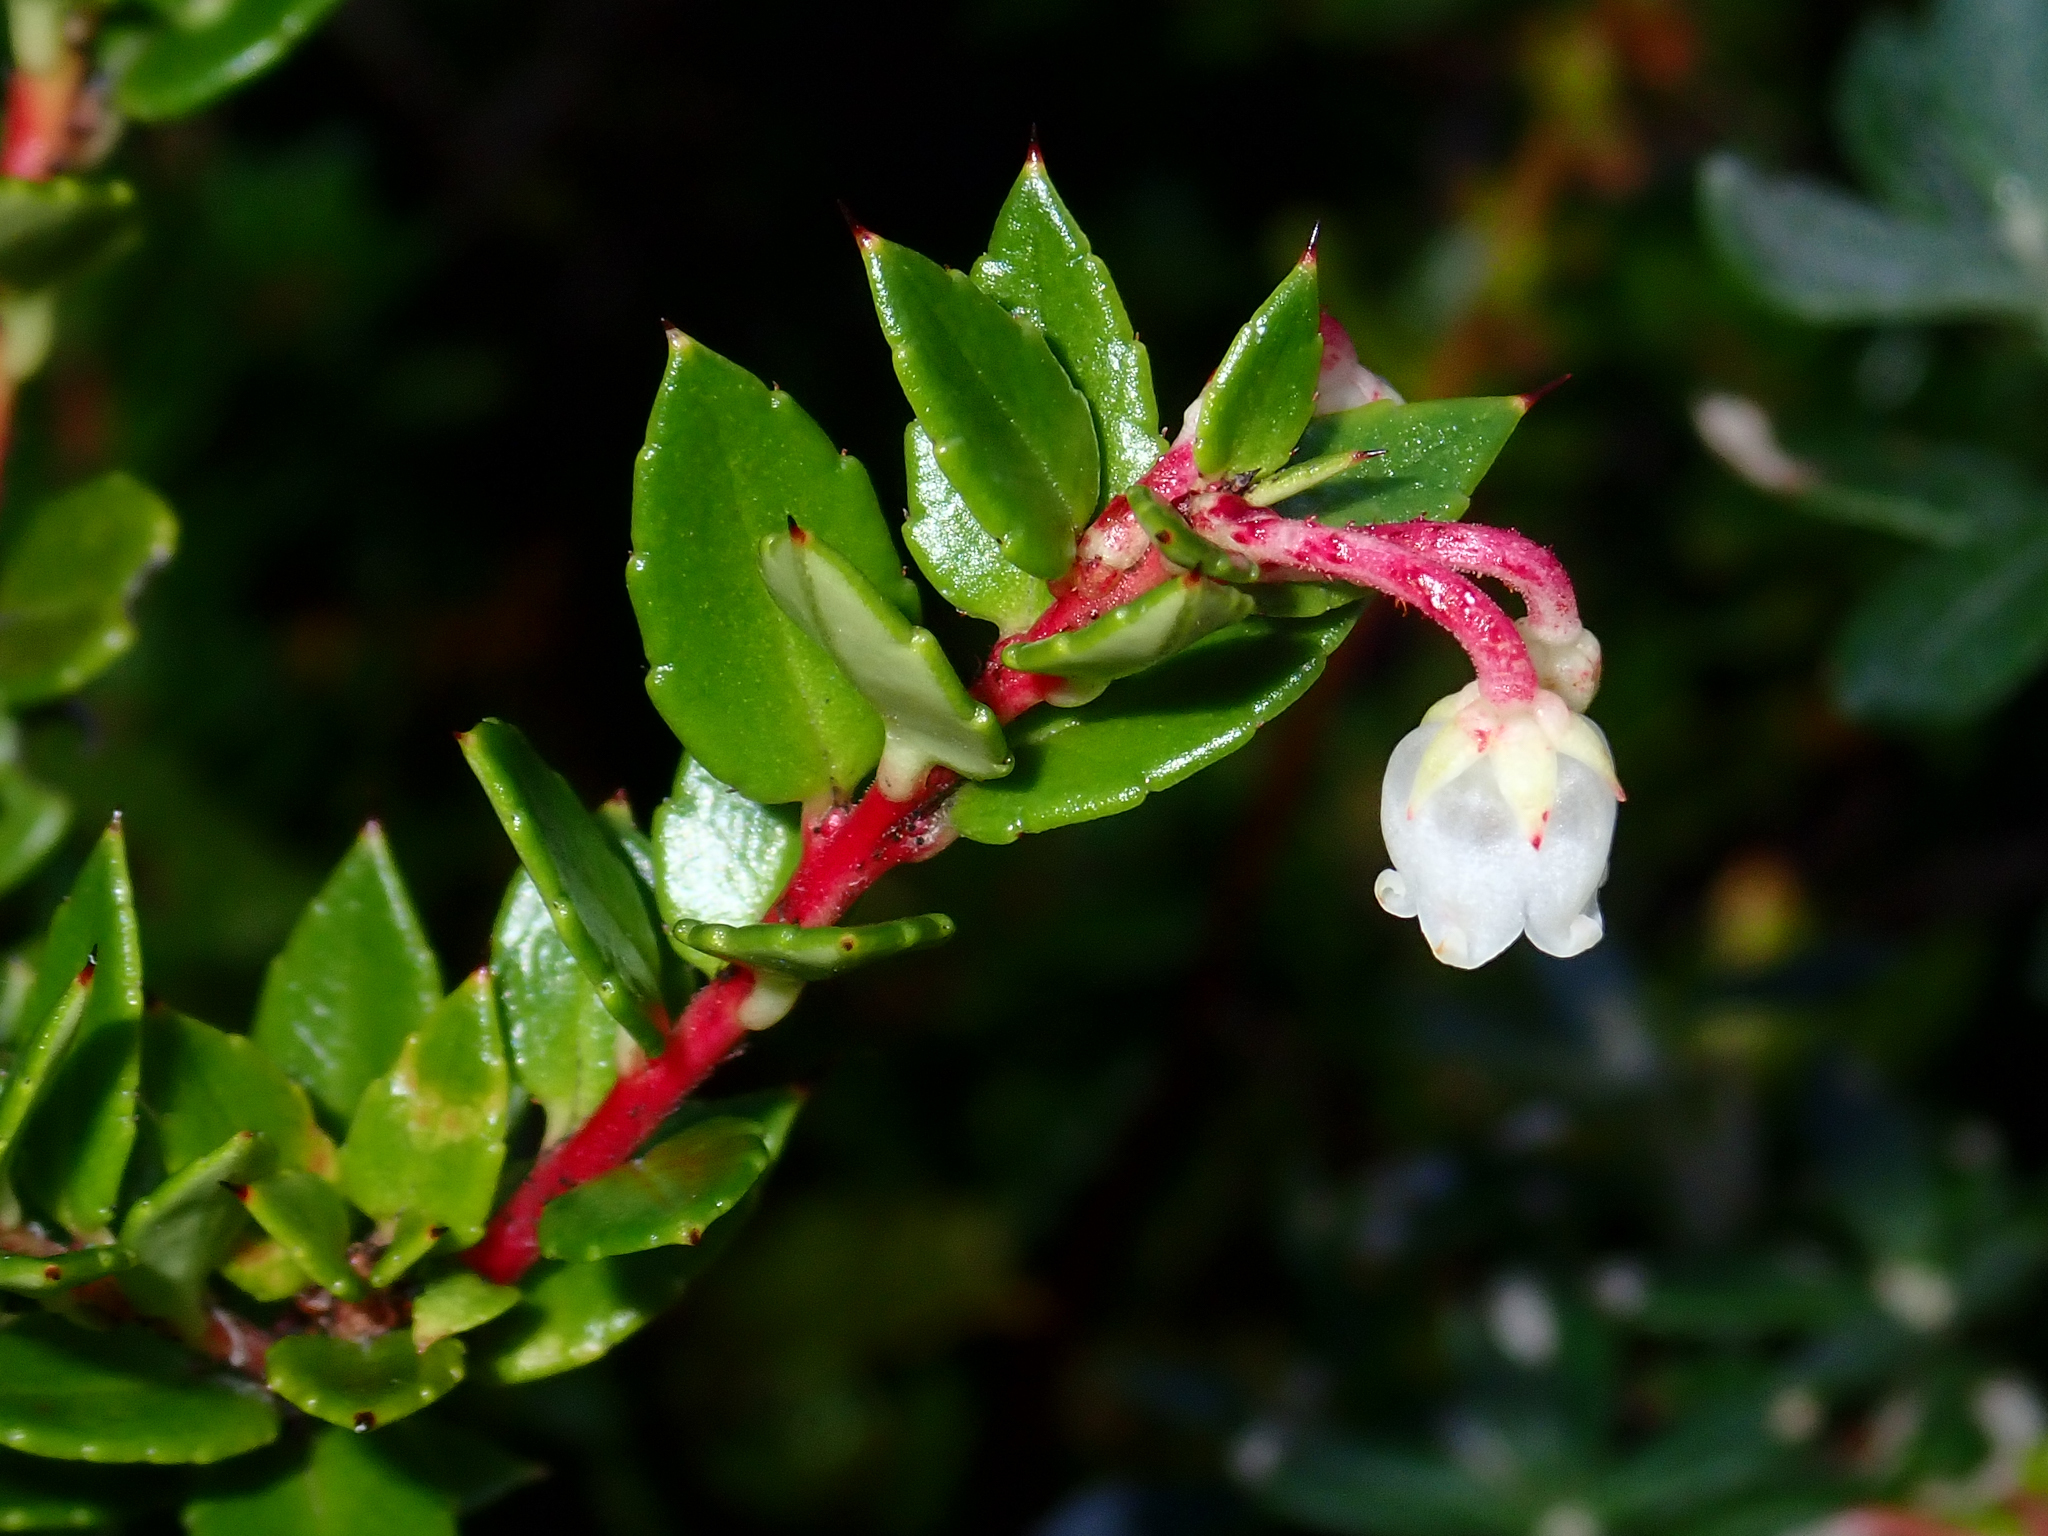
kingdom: Plantae
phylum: Tracheophyta
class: Magnoliopsida
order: Ericales
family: Ericaceae
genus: Gaultheria
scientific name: Gaultheria mucronata
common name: Prickly heath
